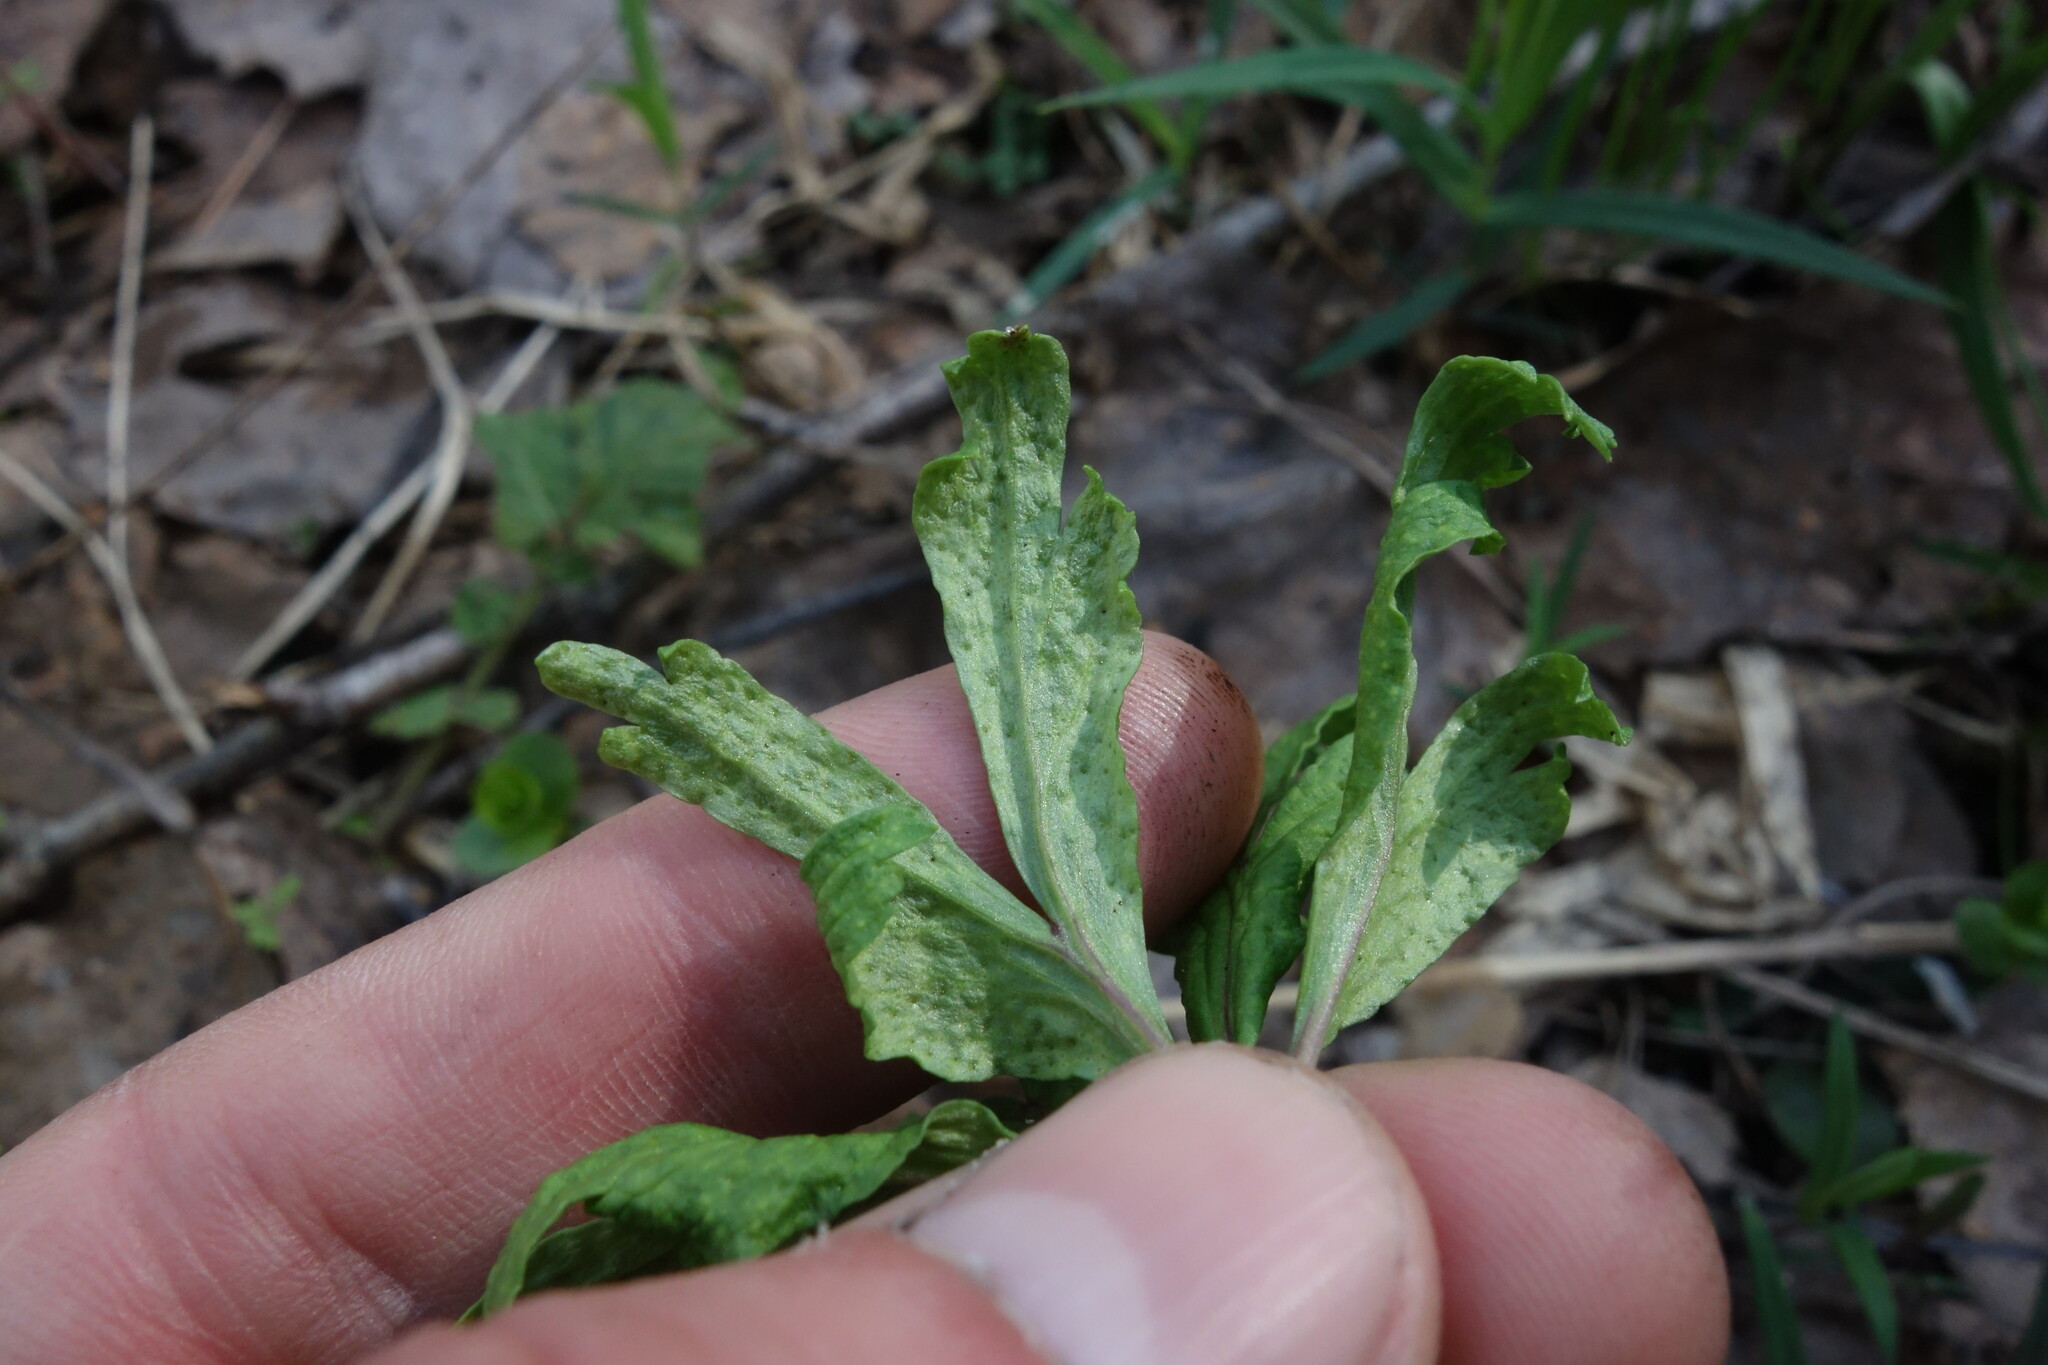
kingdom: Fungi
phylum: Basidiomycota
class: Pucciniomycetes
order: Pucciniales
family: Tranzscheliaceae
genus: Tranzschelia
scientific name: Tranzschelia pruni-spinosae
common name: Blackthorn rust
